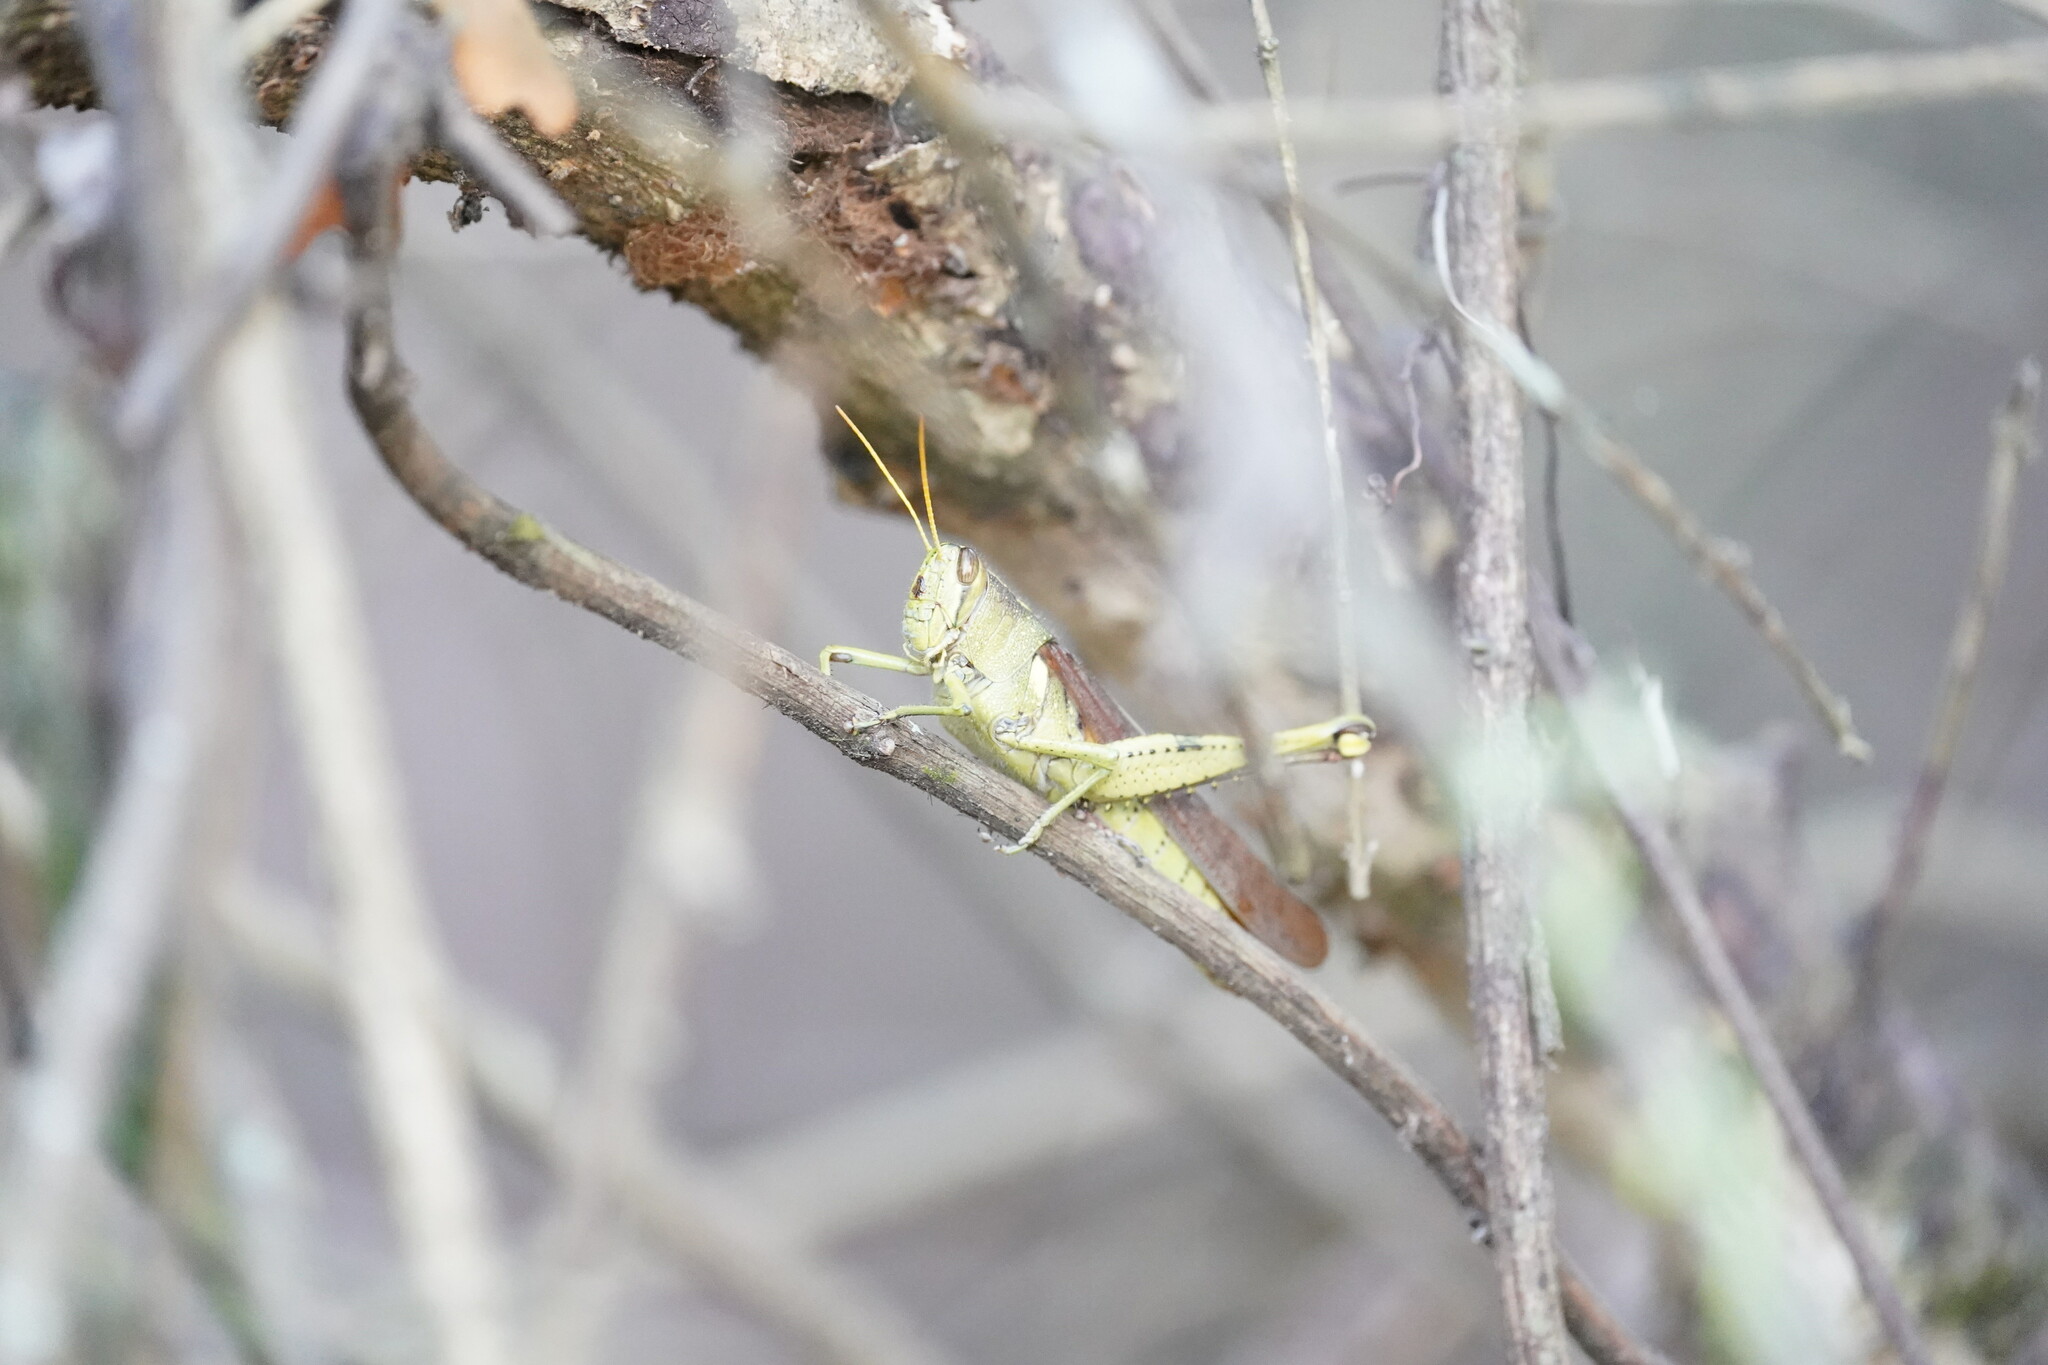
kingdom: Animalia
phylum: Arthropoda
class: Insecta
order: Orthoptera
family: Acrididae
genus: Schistocerca
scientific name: Schistocerca obscura
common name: Obscure bird grasshopper
